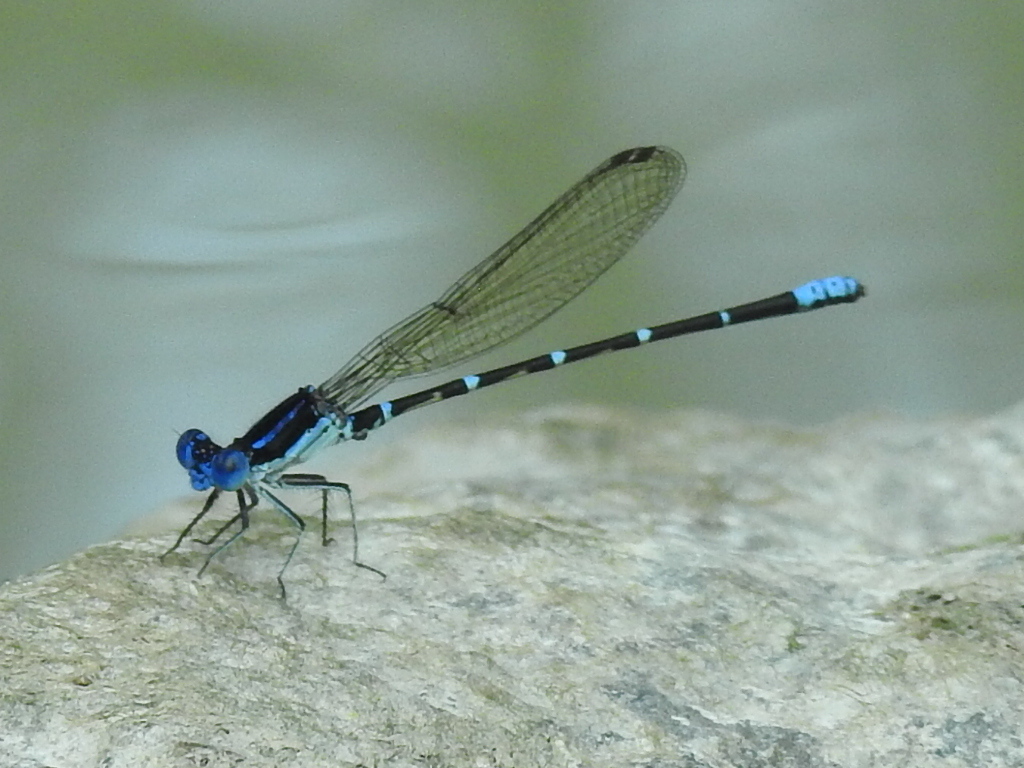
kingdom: Animalia
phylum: Arthropoda
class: Insecta
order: Odonata
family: Coenagrionidae
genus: Argia
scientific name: Argia sedula
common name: Blue-ringed dancer
